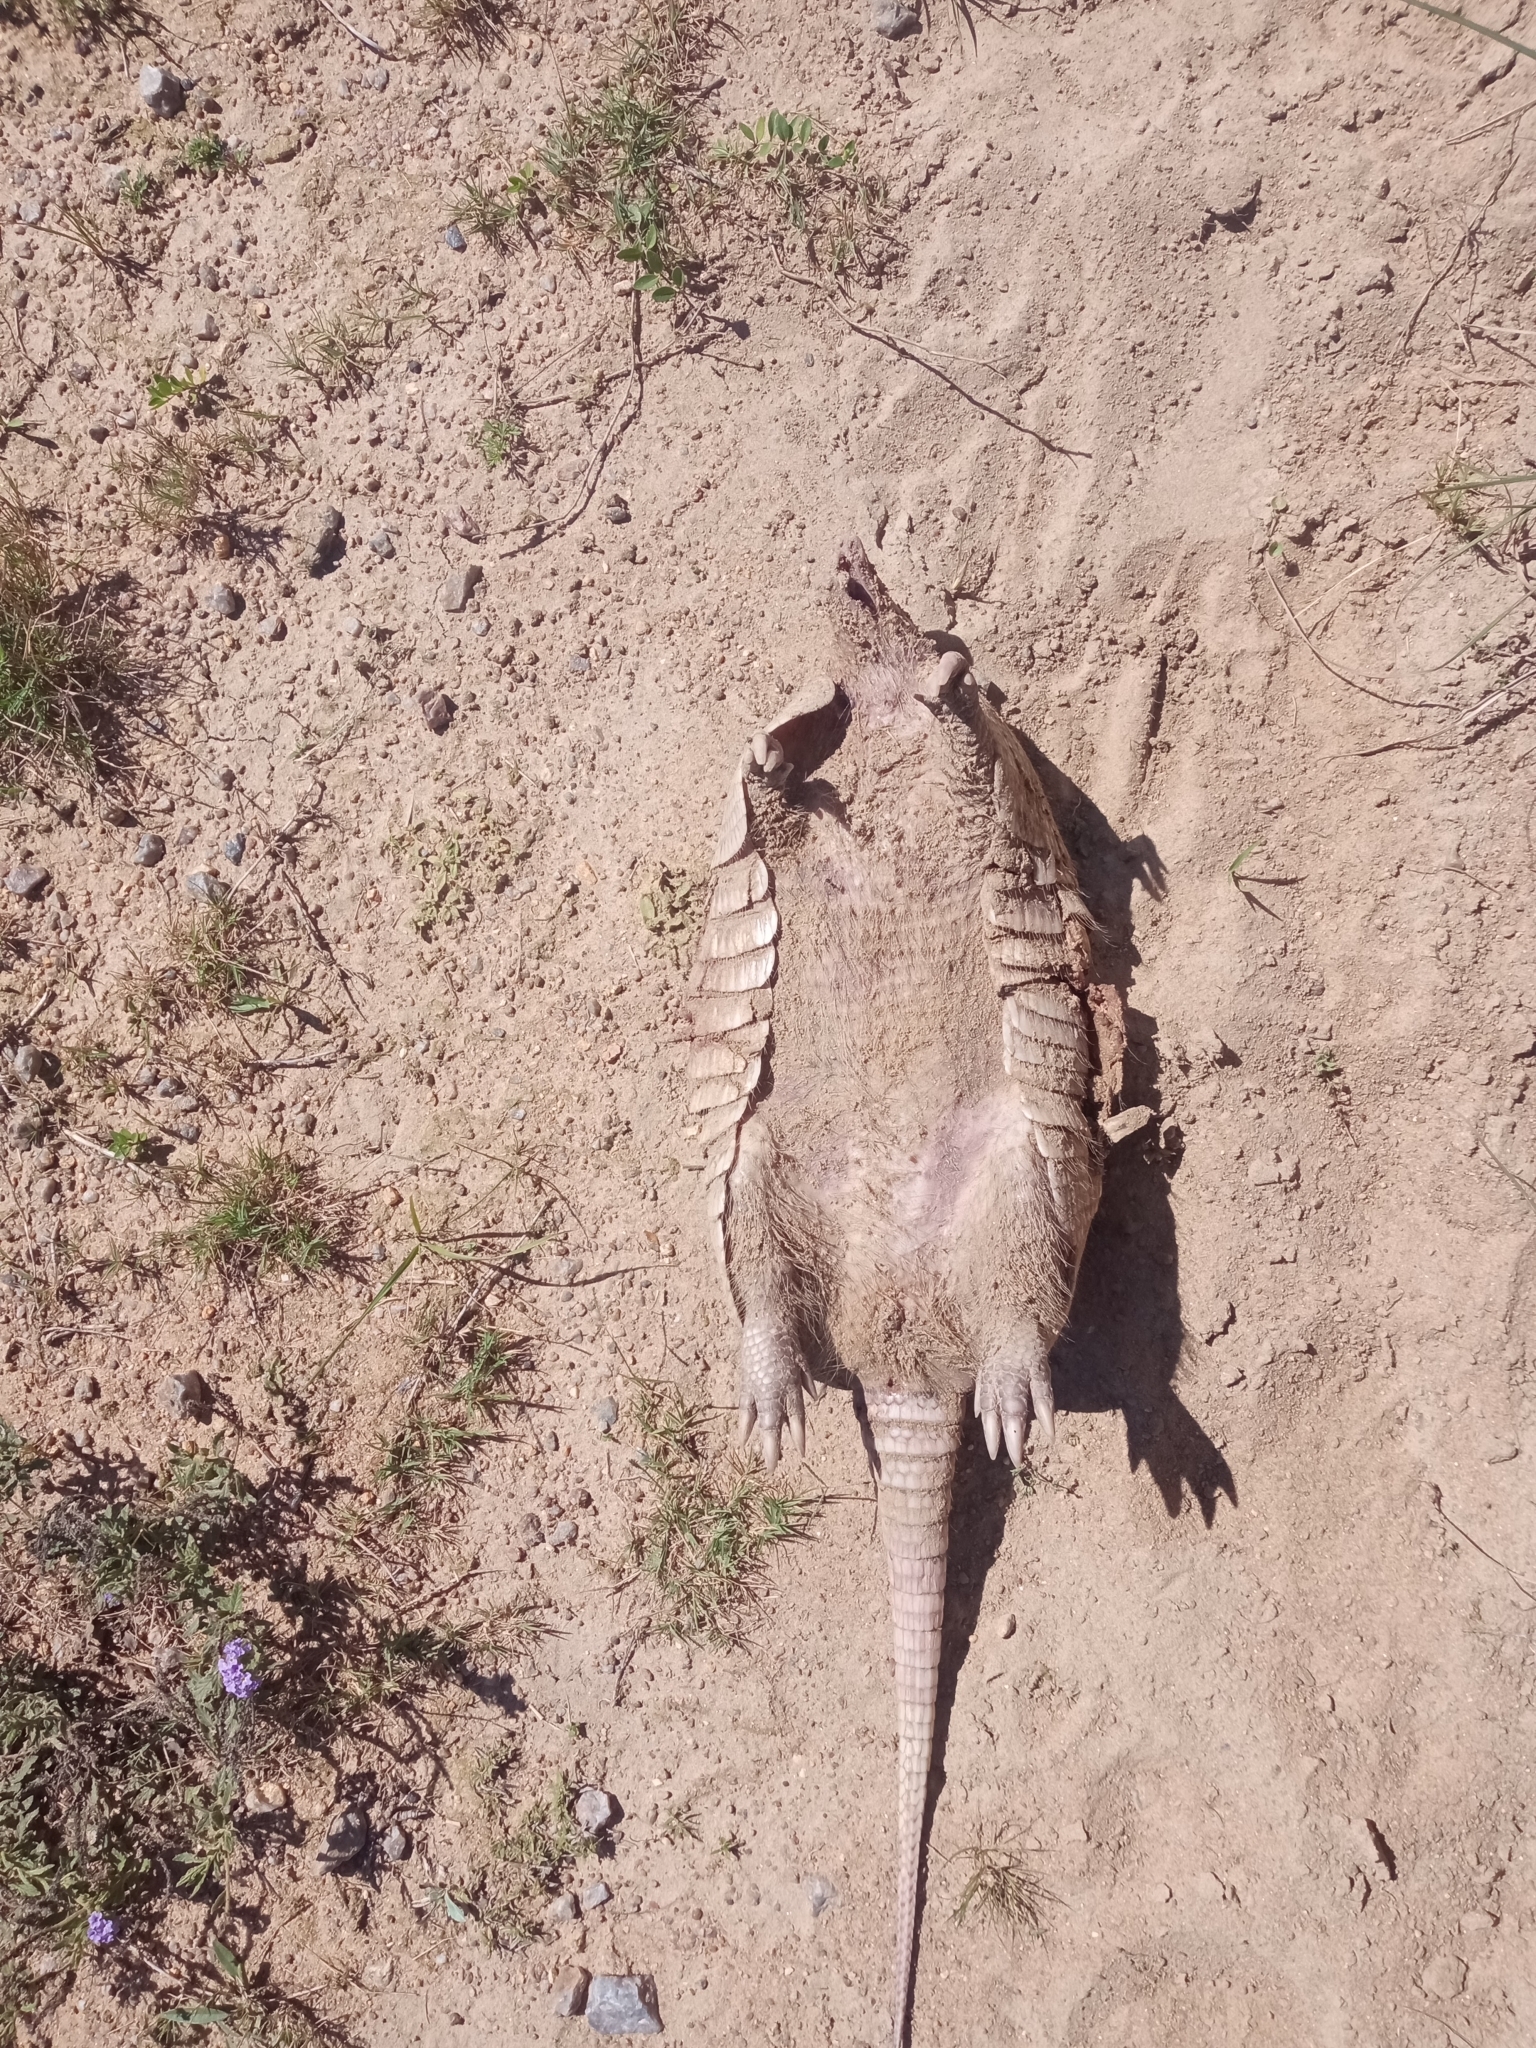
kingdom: Animalia
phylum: Chordata
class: Mammalia
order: Cingulata
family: Dasypodidae
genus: Dasypus
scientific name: Dasypus novemcinctus
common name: Nine-banded armadillo
